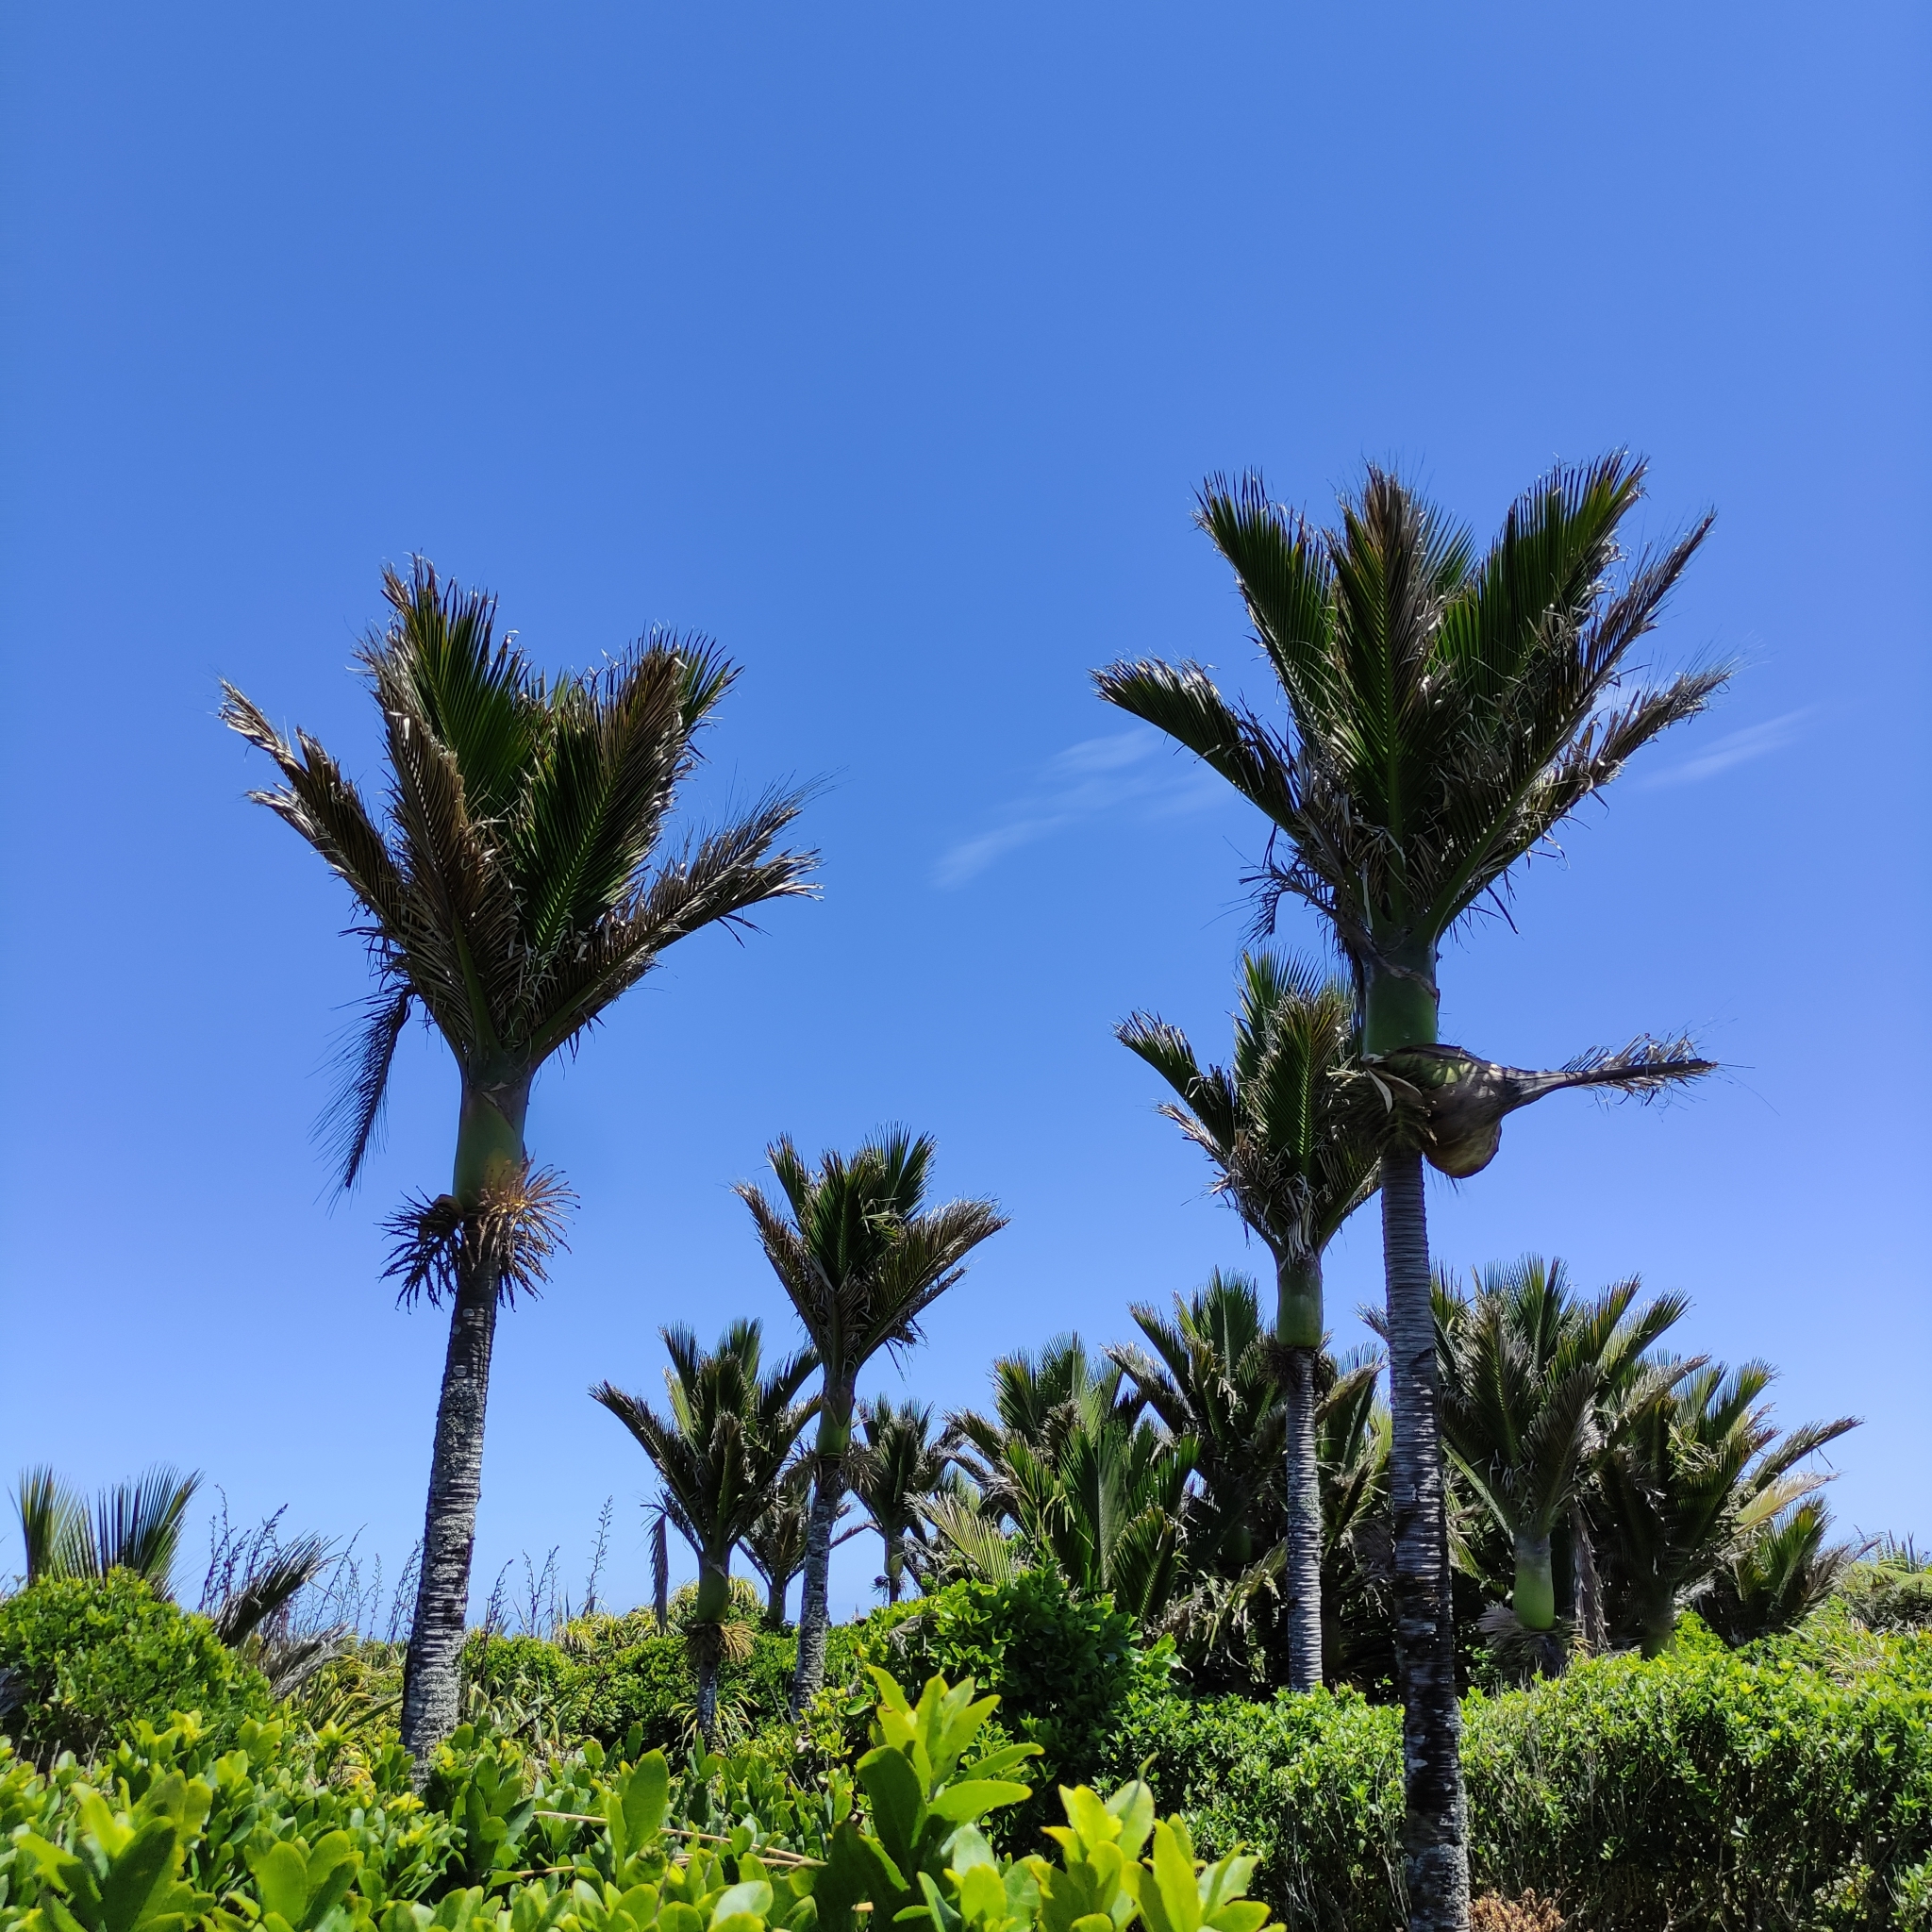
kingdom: Plantae
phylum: Tracheophyta
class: Liliopsida
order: Arecales
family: Arecaceae
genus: Rhopalostylis
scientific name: Rhopalostylis sapida
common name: Feather-duster palm
